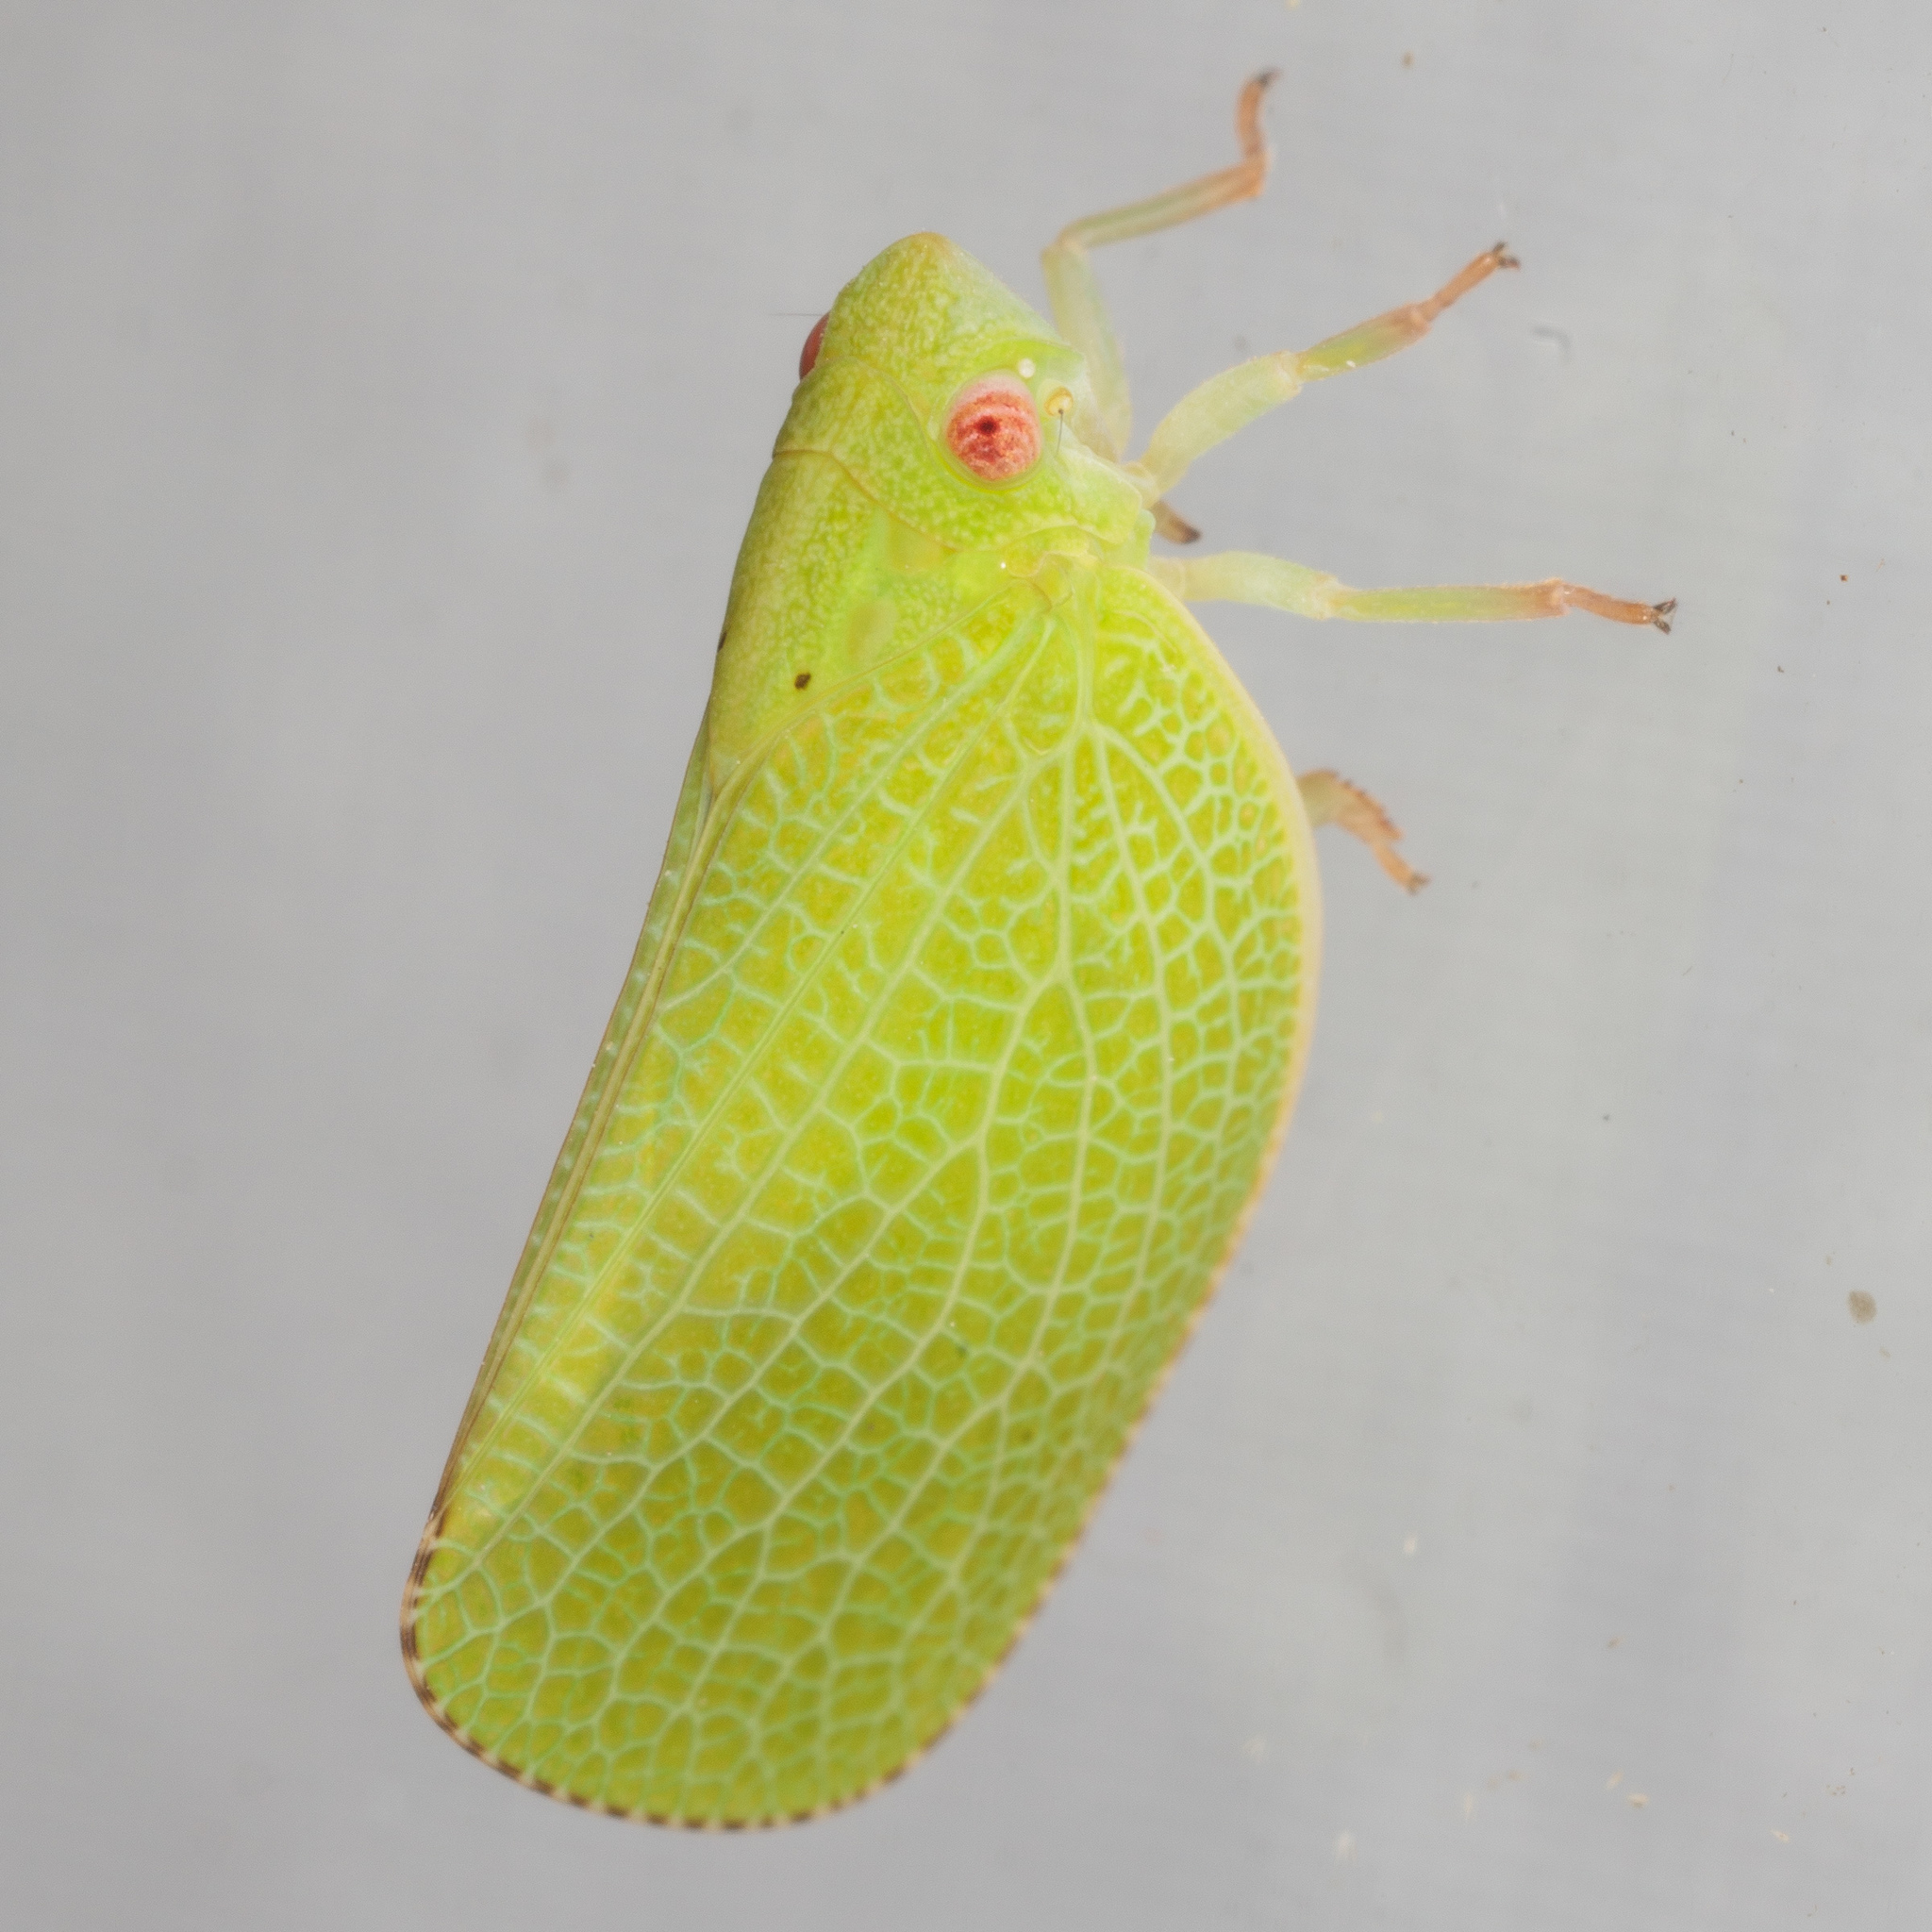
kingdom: Animalia
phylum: Arthropoda
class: Insecta
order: Hemiptera
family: Acanaloniidae
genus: Acanalonia
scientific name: Acanalonia conica
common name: Green cone-headed planthopper
